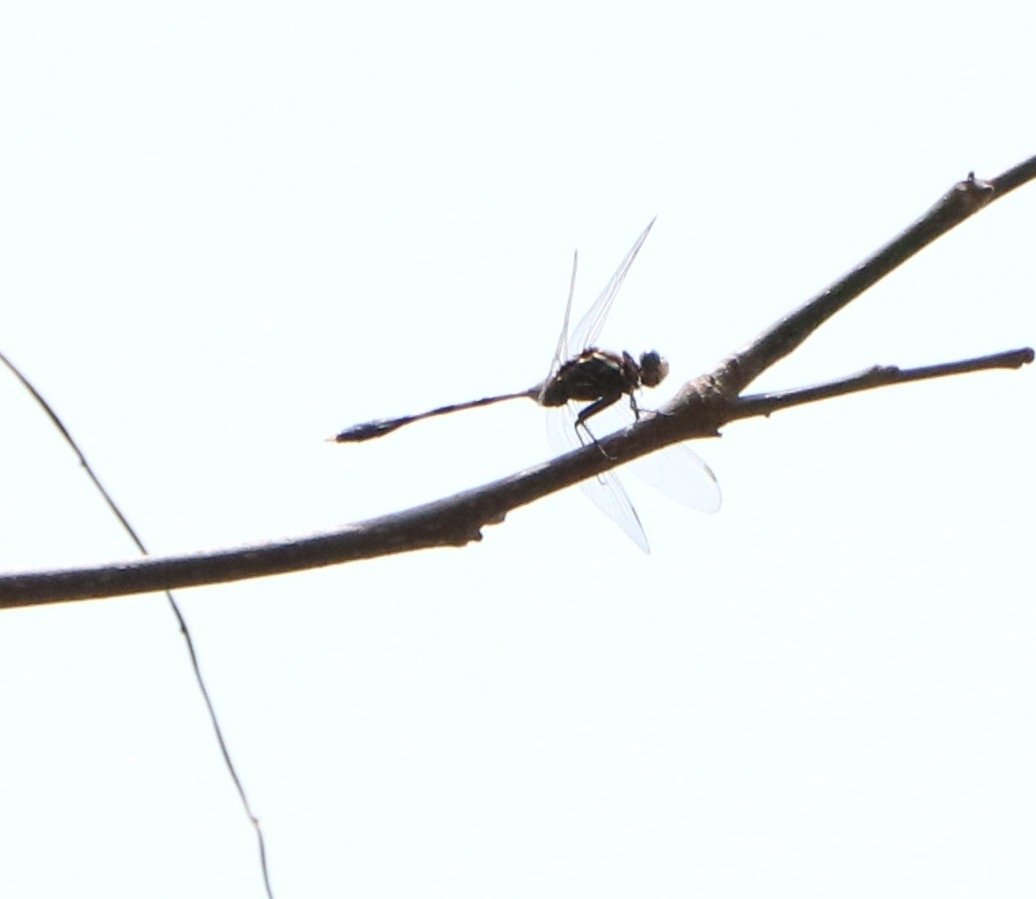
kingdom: Animalia
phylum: Arthropoda
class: Insecta
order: Odonata
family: Libellulidae
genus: Orthetrum
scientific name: Orthetrum sabina
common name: Slender skimmer
